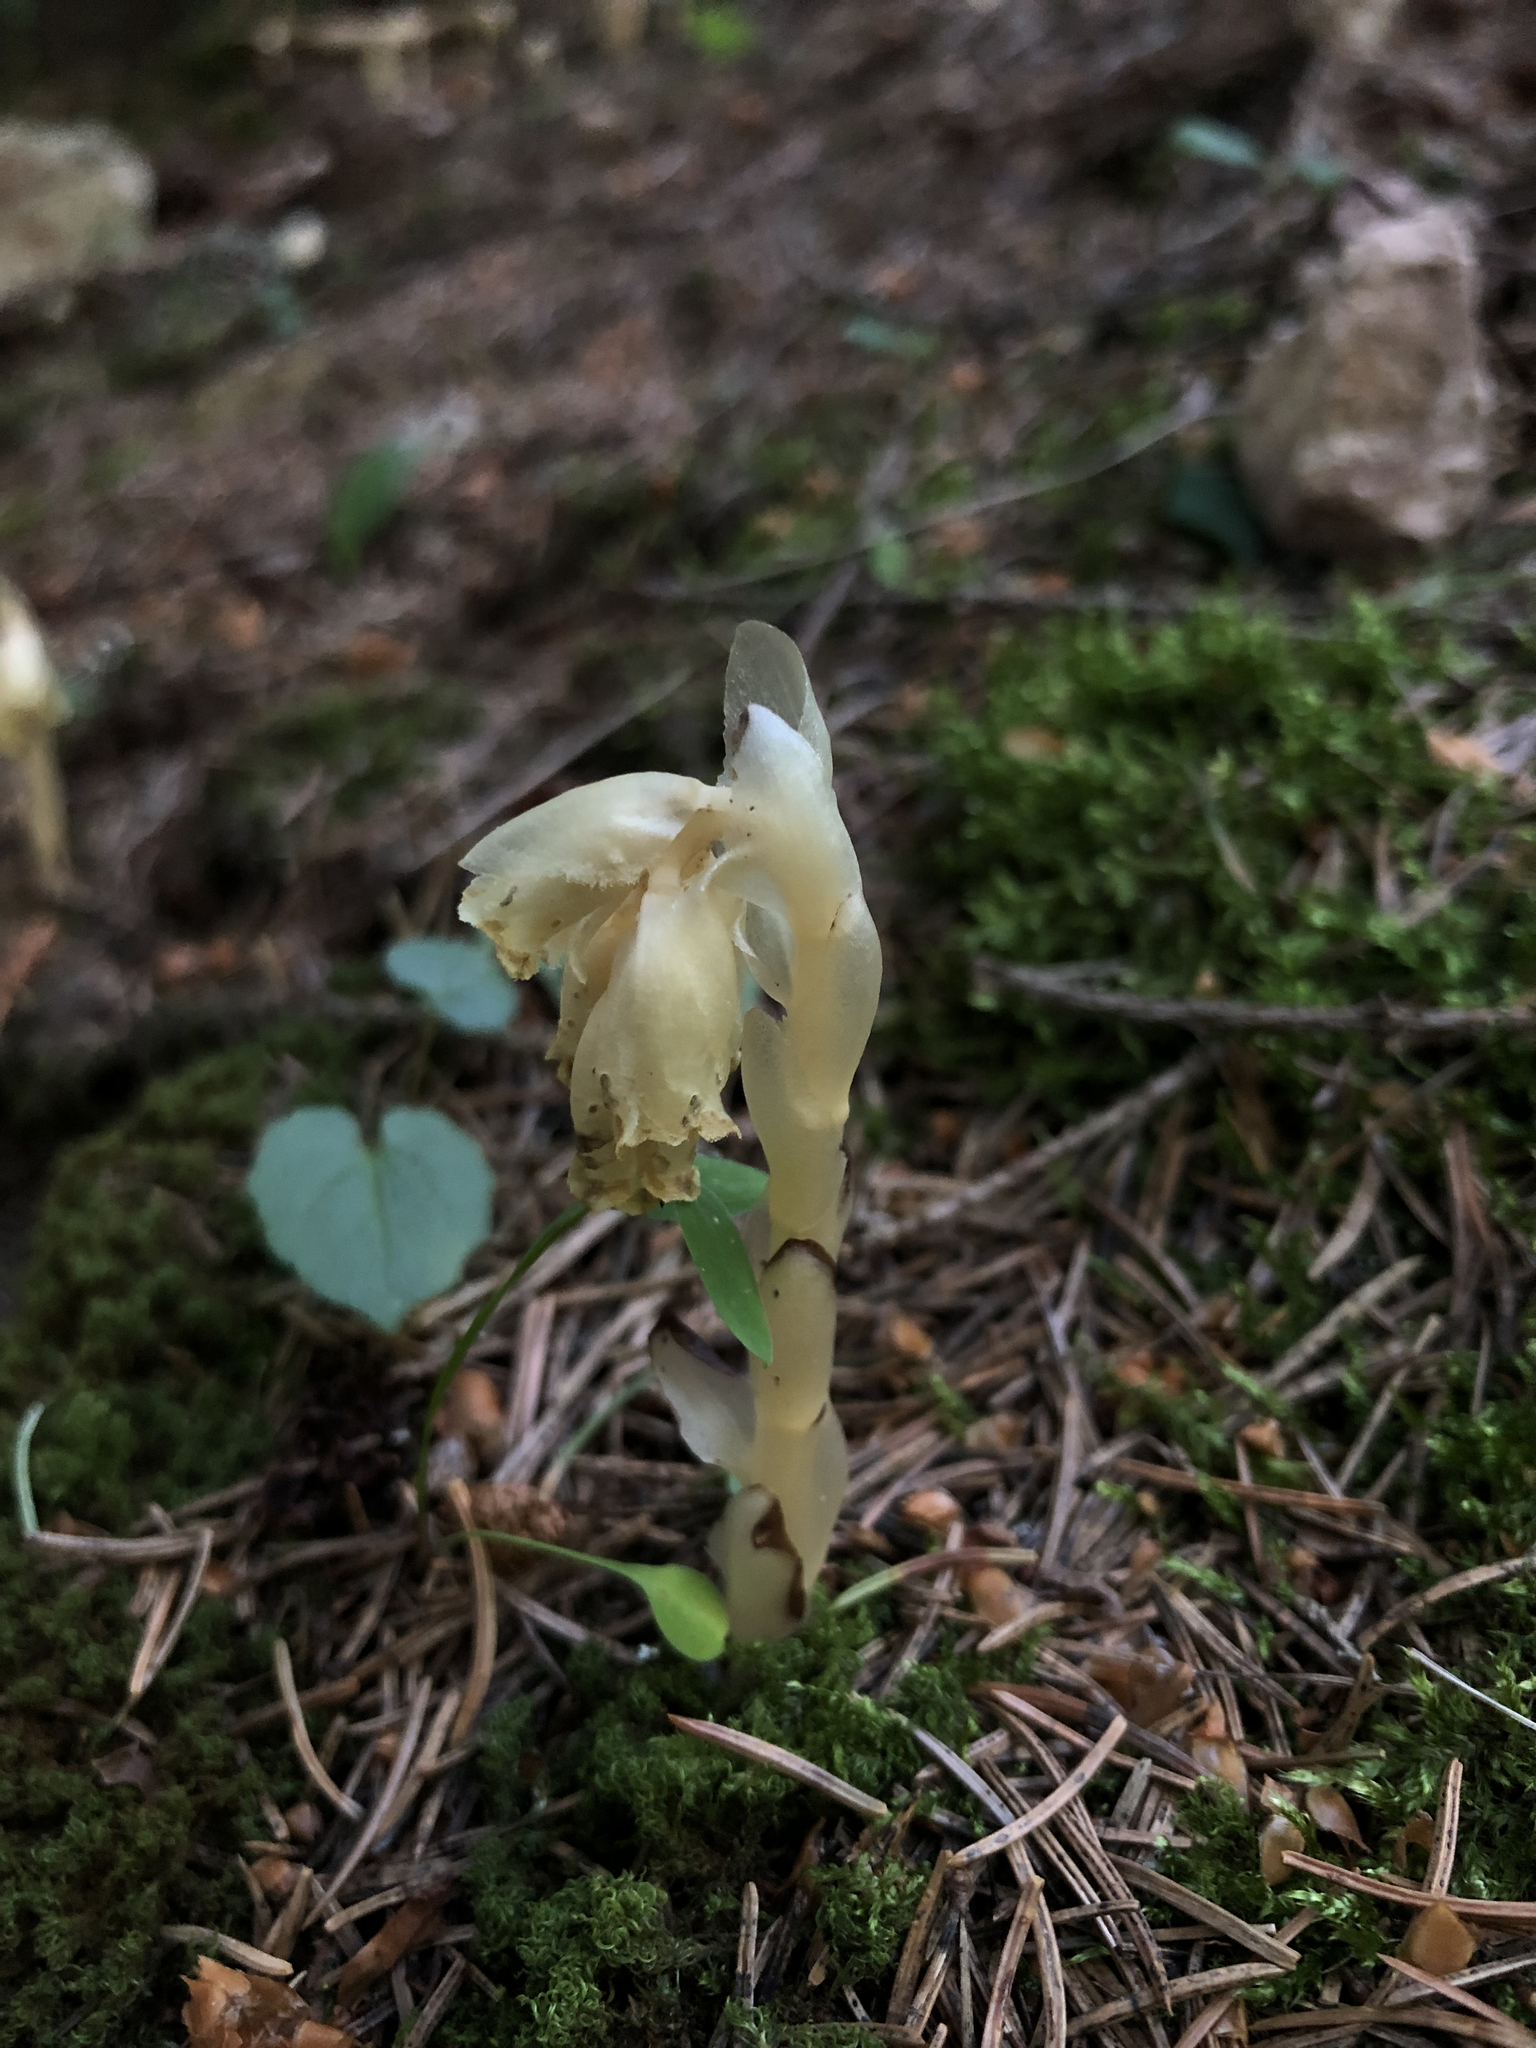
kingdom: Plantae
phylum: Tracheophyta
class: Magnoliopsida
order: Ericales
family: Ericaceae
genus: Hypopitys
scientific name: Hypopitys monotropa
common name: Yellow bird's-nest
